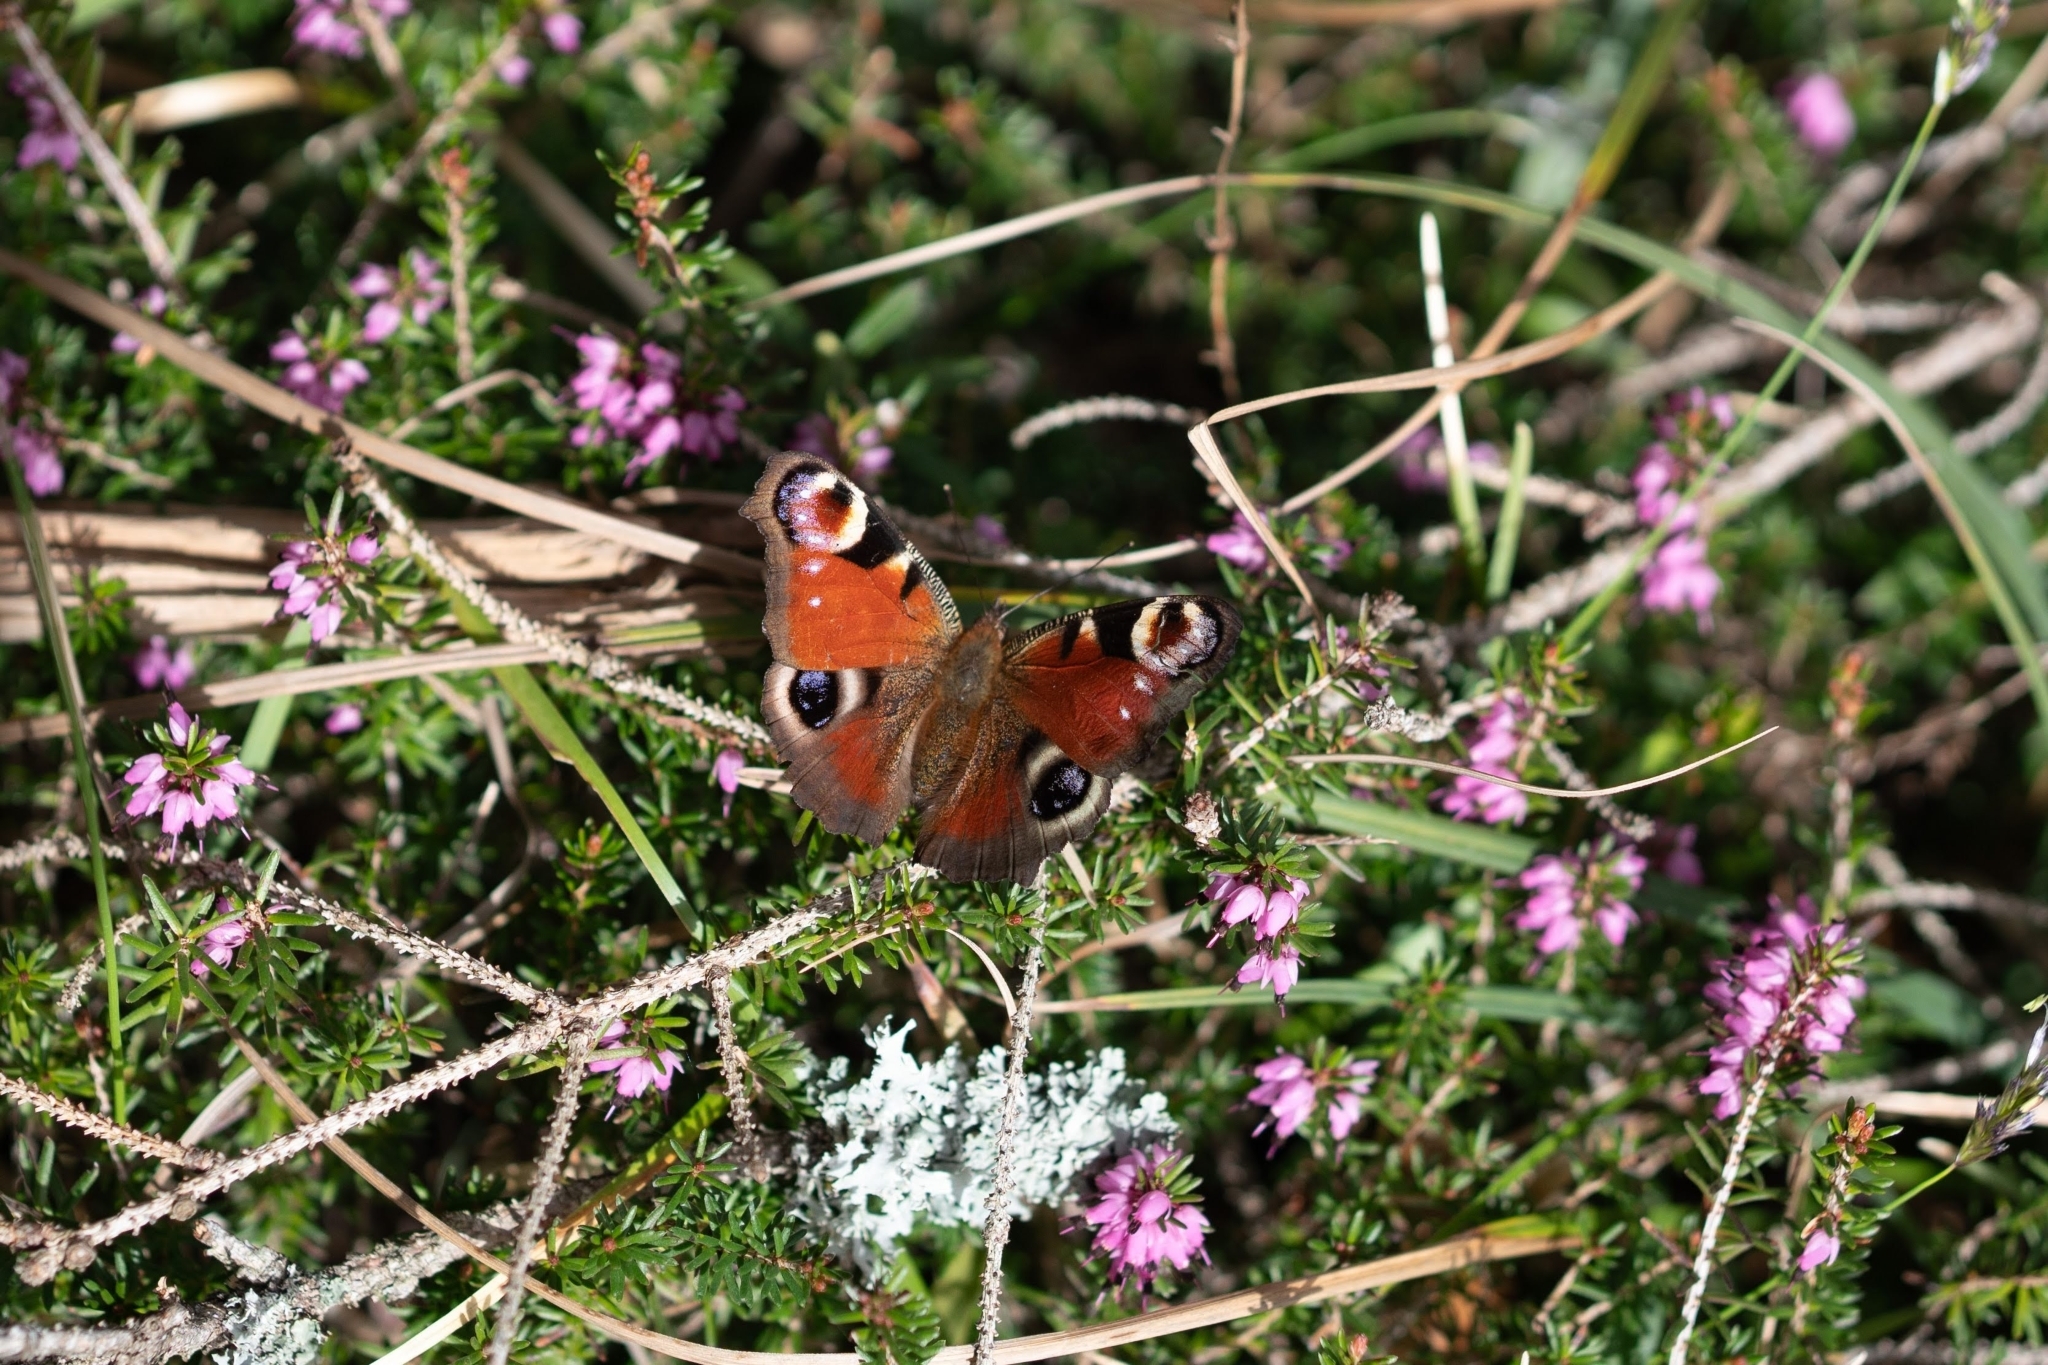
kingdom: Animalia
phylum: Arthropoda
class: Insecta
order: Lepidoptera
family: Nymphalidae
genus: Aglais
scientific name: Aglais io
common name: Peacock
